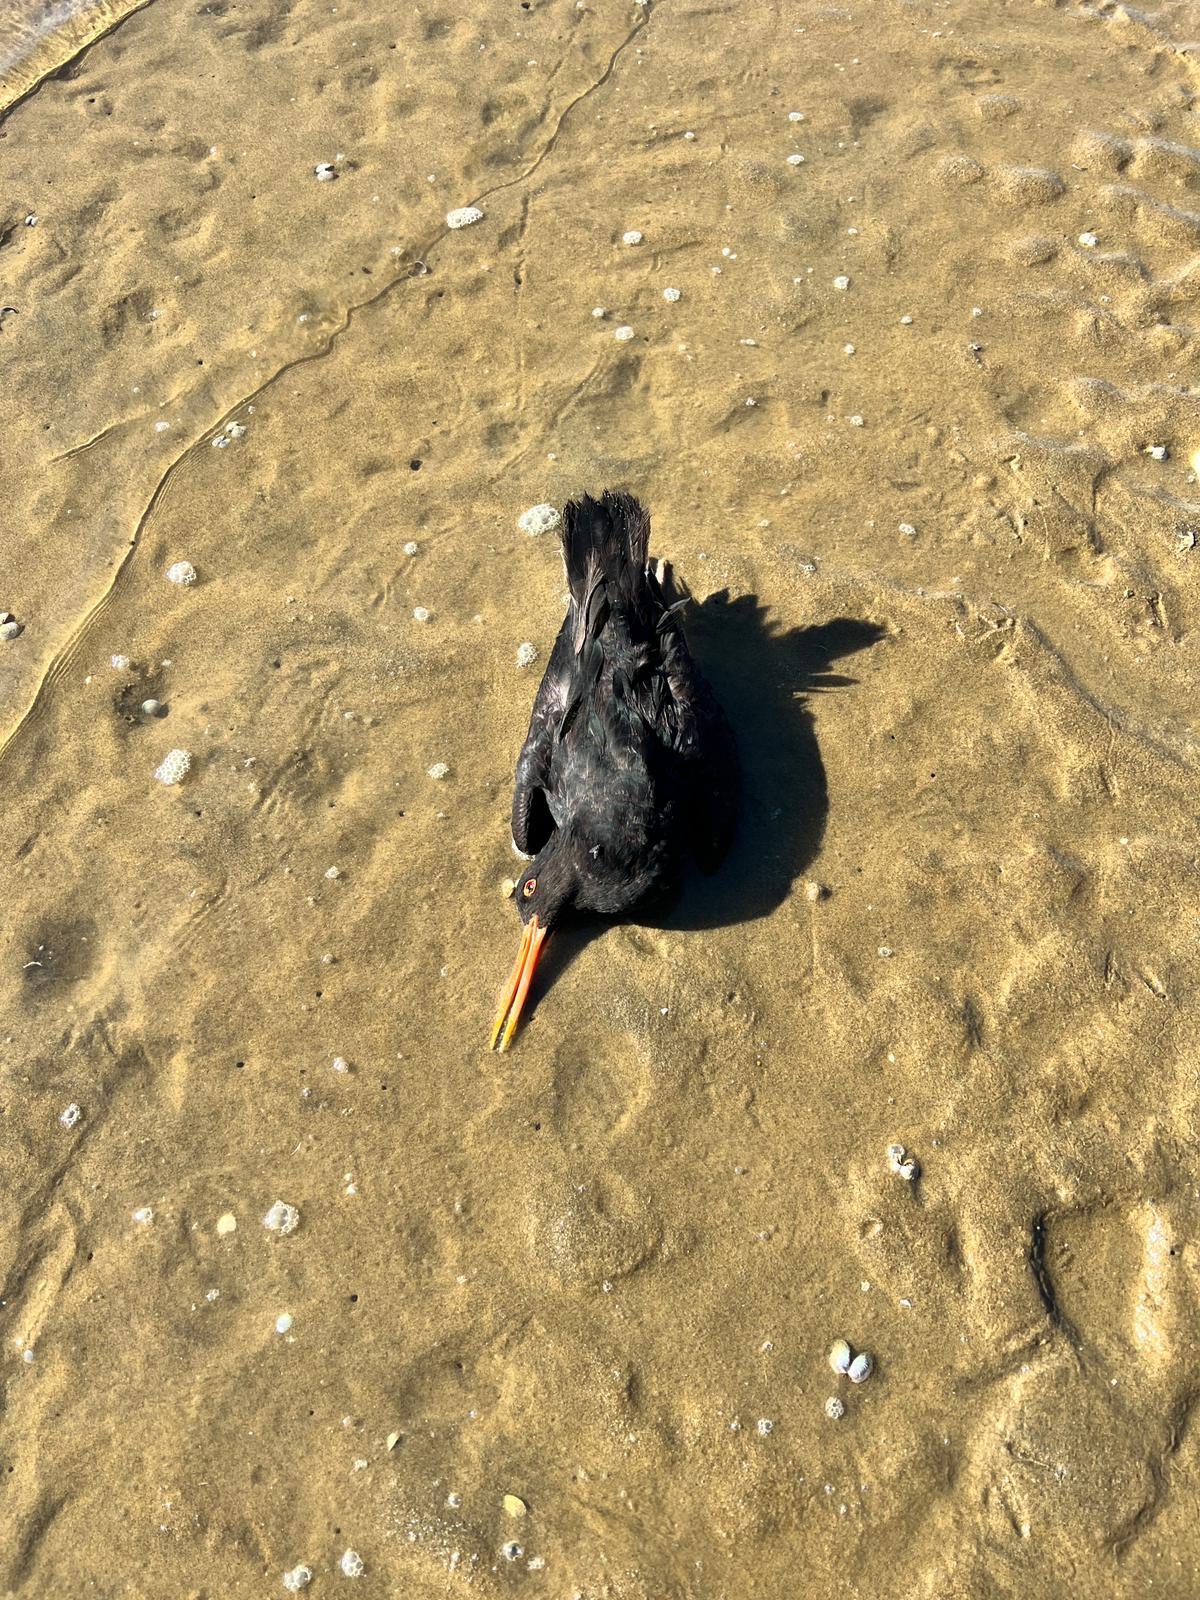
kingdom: Animalia
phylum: Chordata
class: Aves
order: Charadriiformes
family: Haematopodidae
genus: Haematopus
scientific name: Haematopus unicolor
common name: Variable oystercatcher
